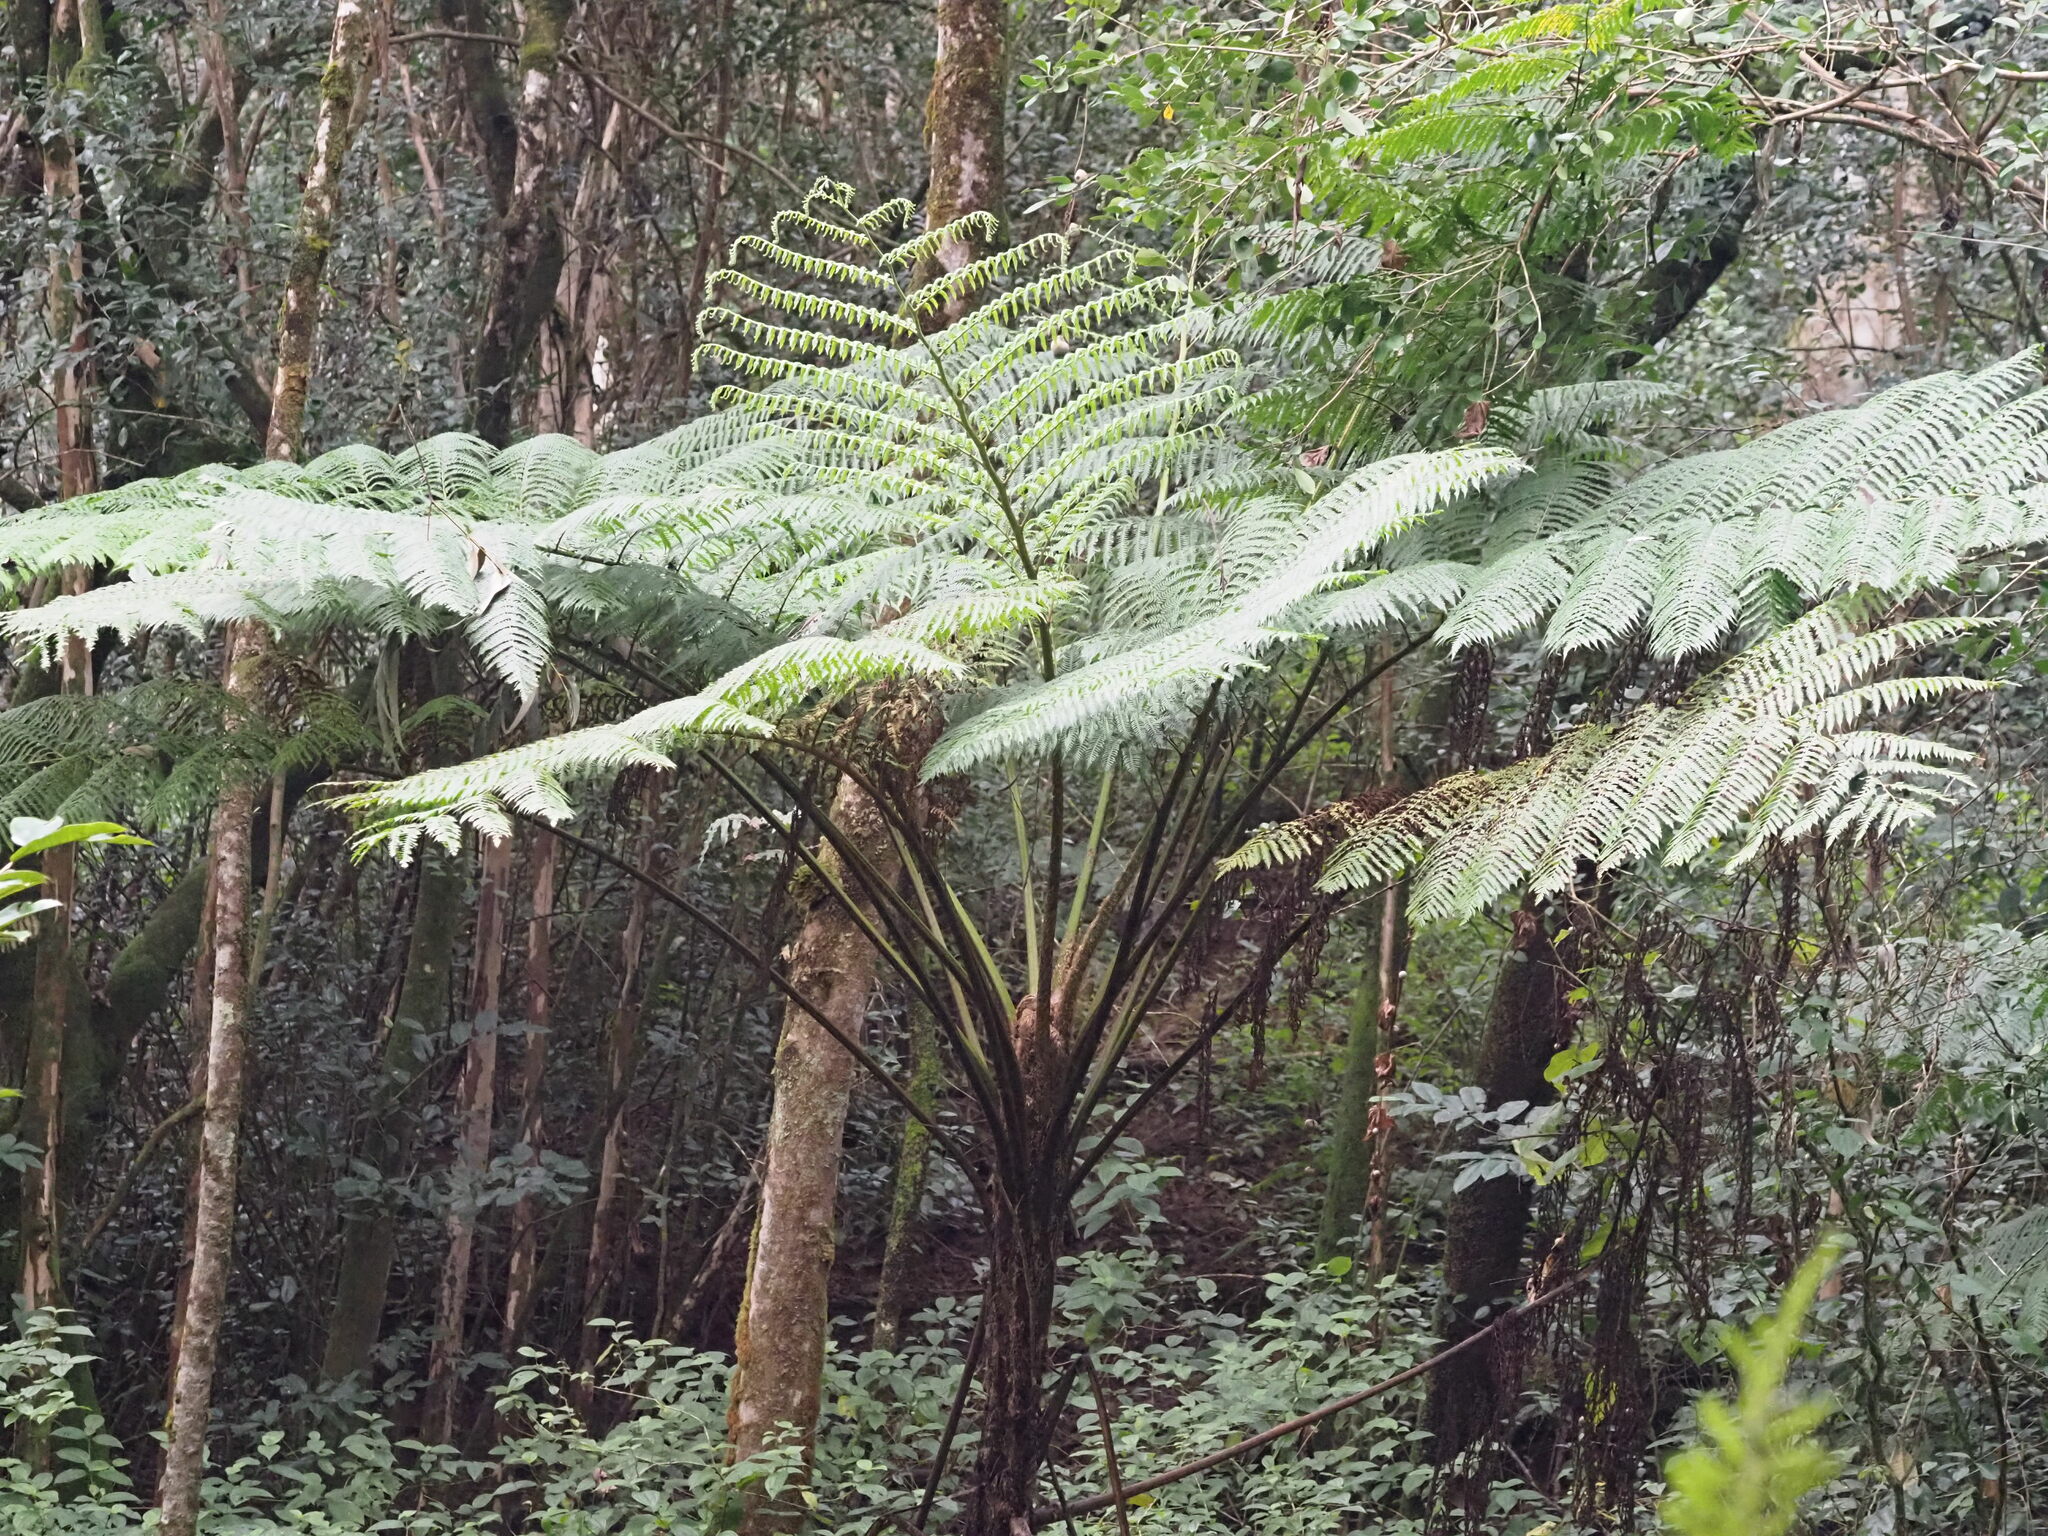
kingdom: Plantae
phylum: Tracheophyta
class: Polypodiopsida
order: Cyatheales
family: Cyatheaceae
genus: Sphaeropteris
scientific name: Sphaeropteris cooperi
